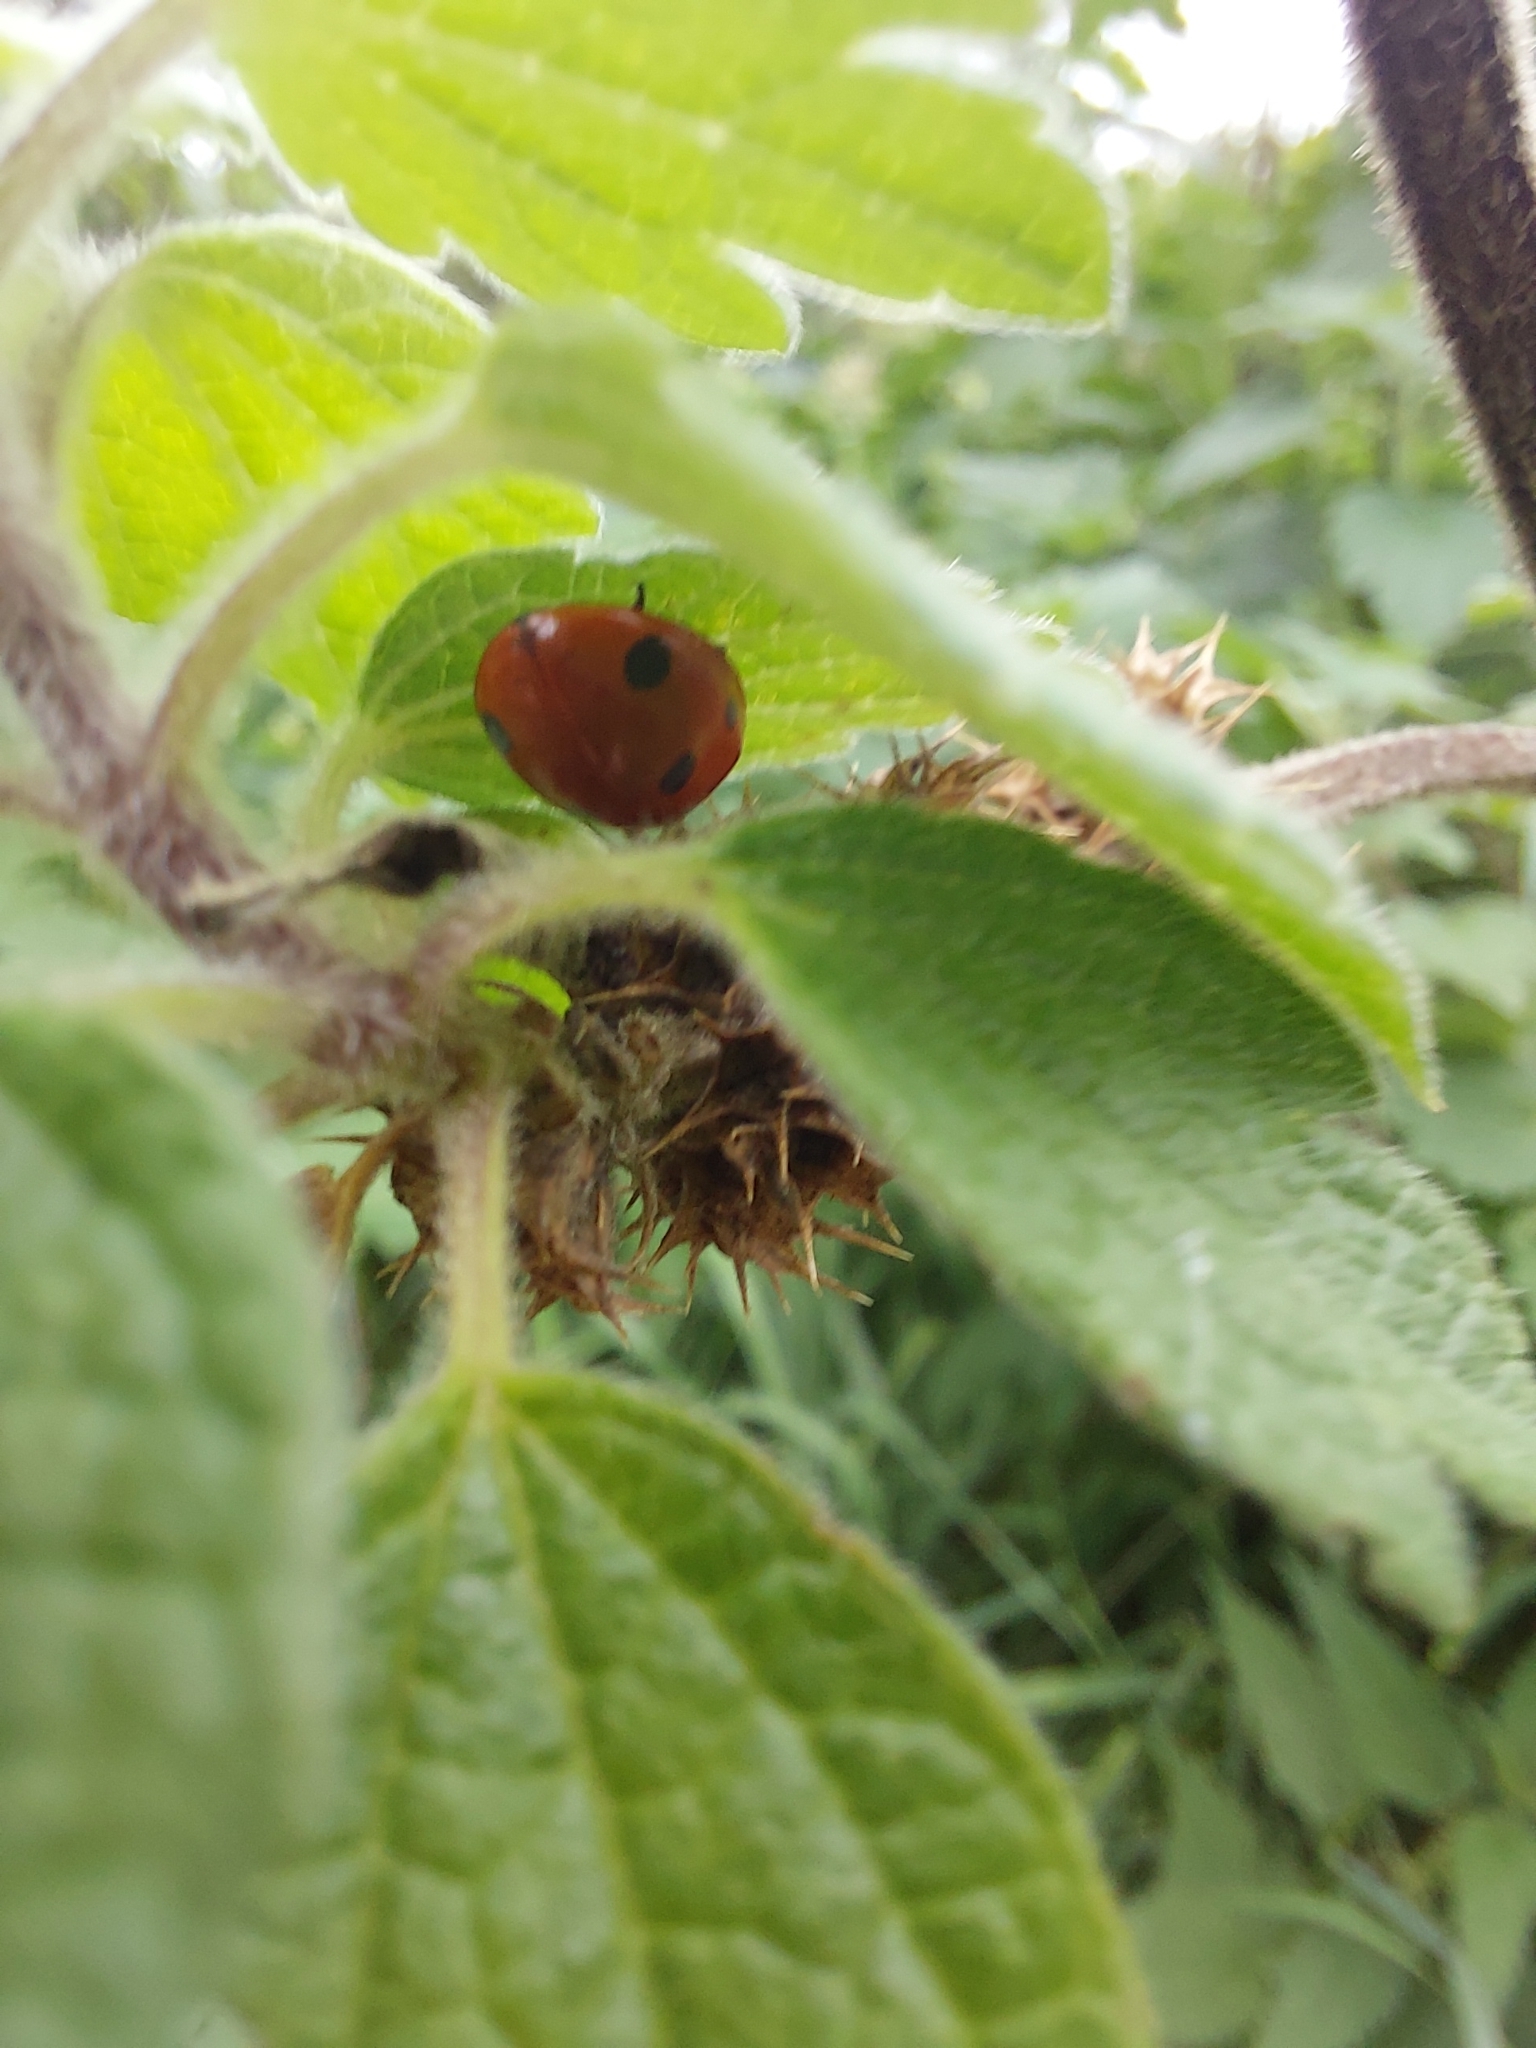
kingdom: Animalia
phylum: Arthropoda
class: Insecta
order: Coleoptera
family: Coccinellidae
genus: Coccinella
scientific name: Coccinella septempunctata
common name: Sevenspotted lady beetle
